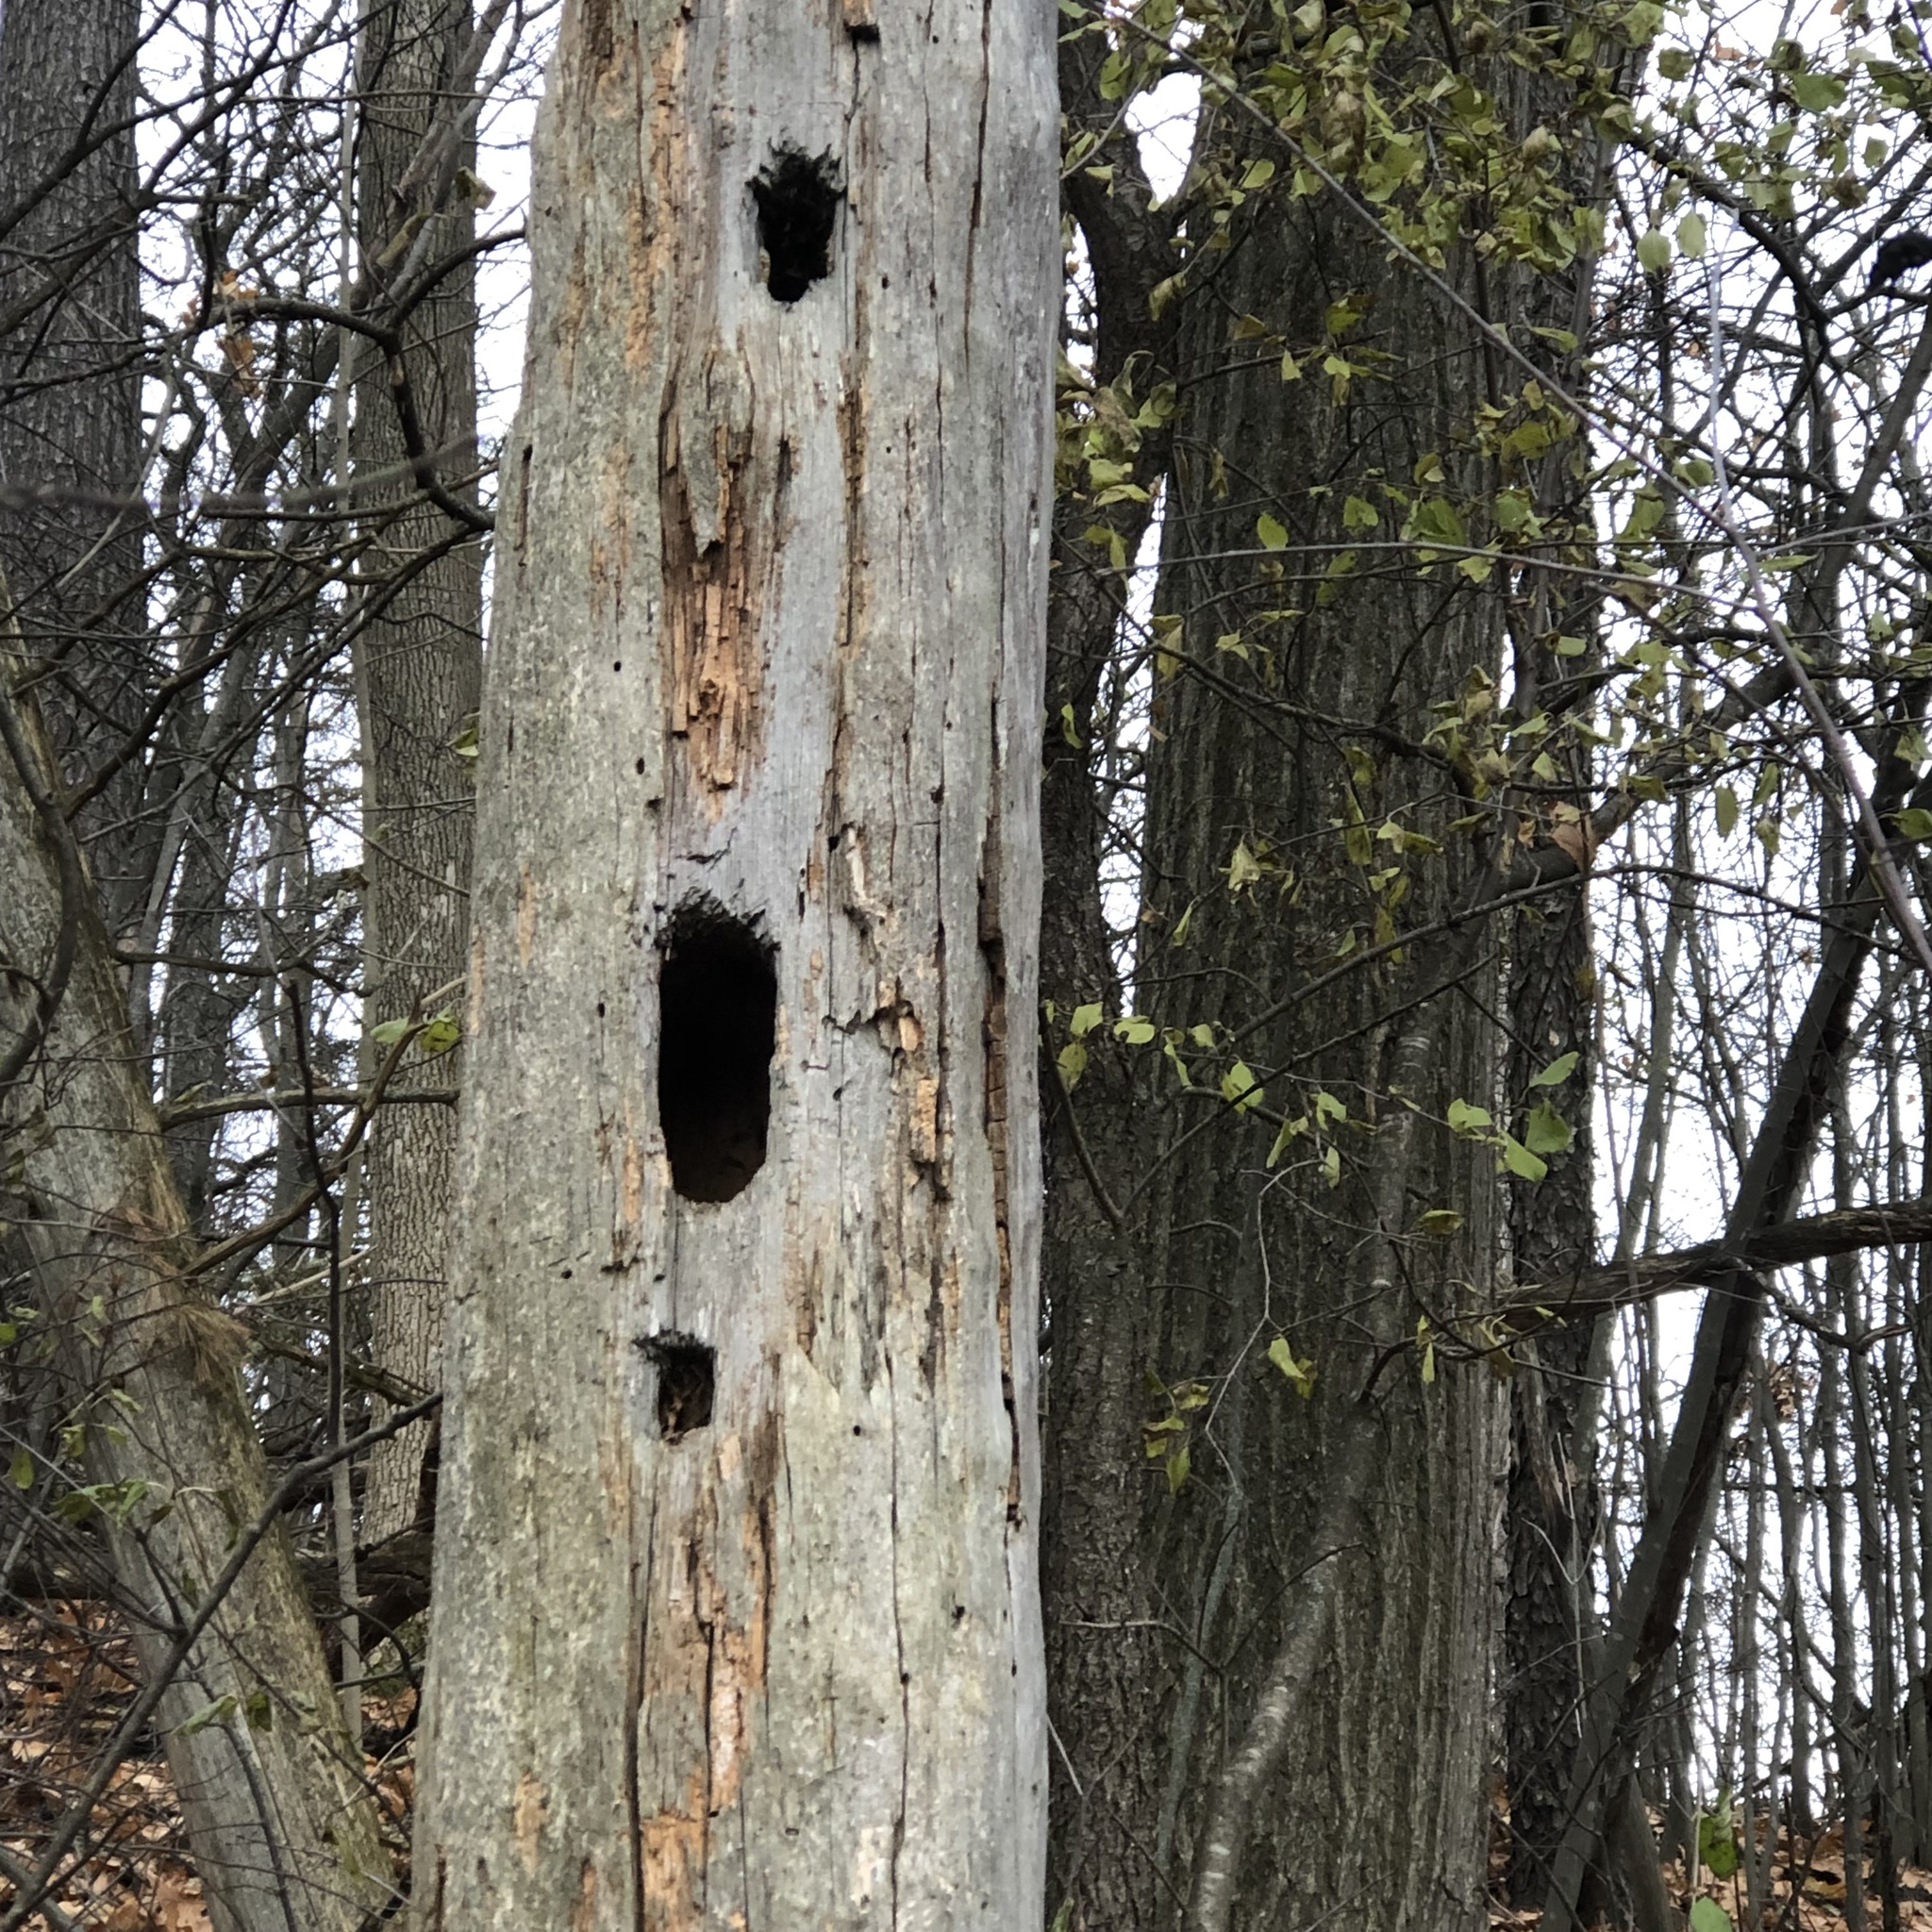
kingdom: Animalia
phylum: Chordata
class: Aves
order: Piciformes
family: Picidae
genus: Dryocopus
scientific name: Dryocopus pileatus
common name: Pileated woodpecker
